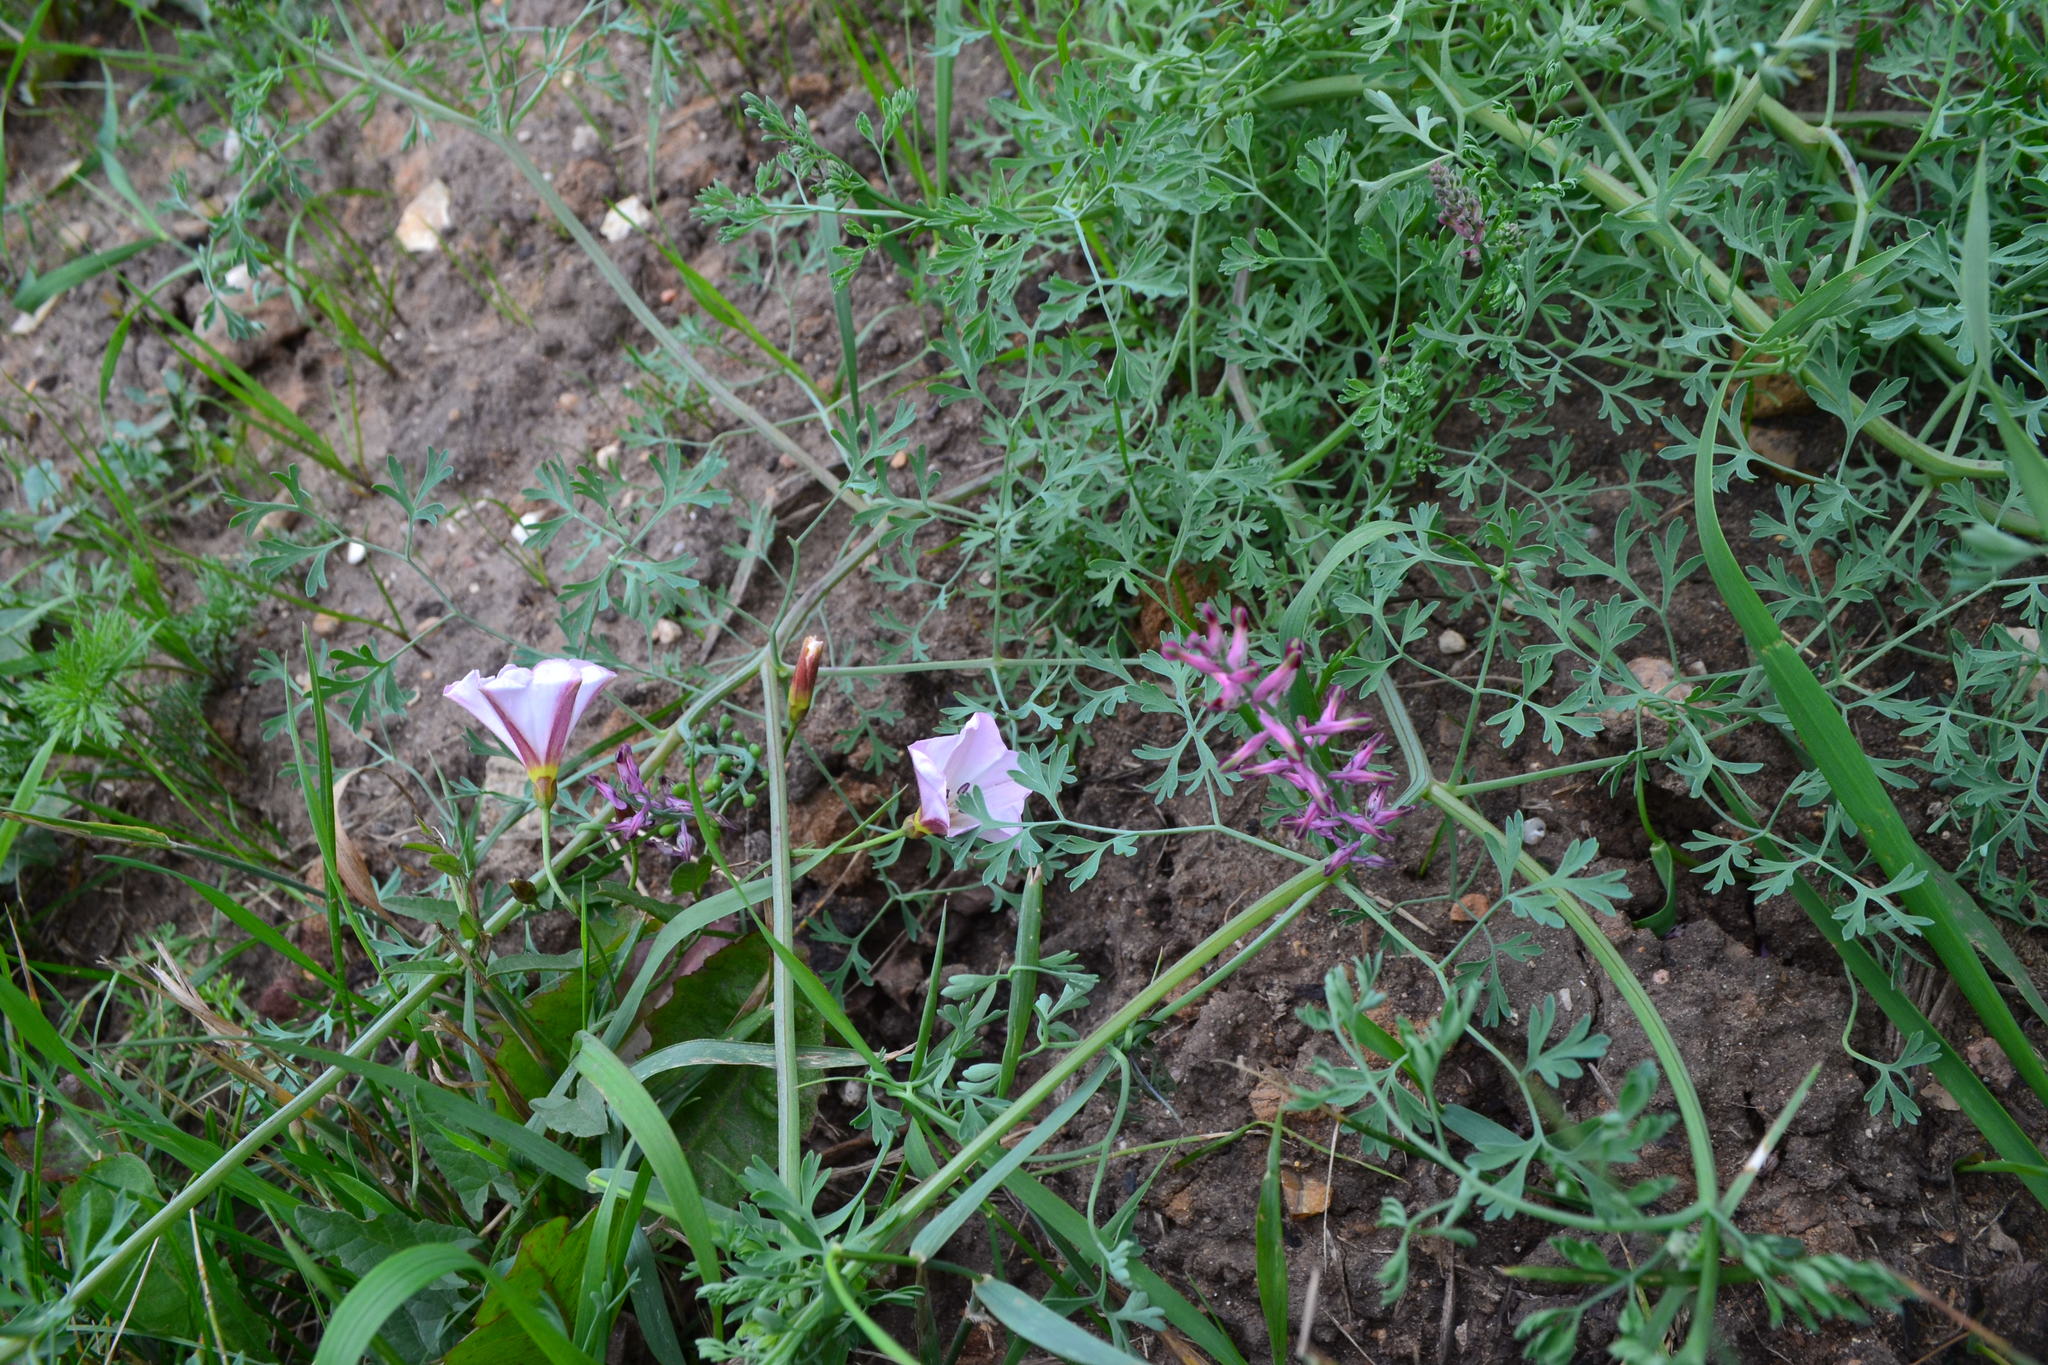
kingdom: Plantae
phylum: Tracheophyta
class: Magnoliopsida
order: Ranunculales
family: Papaveraceae
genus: Fumaria
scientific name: Fumaria officinalis
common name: Common fumitory
